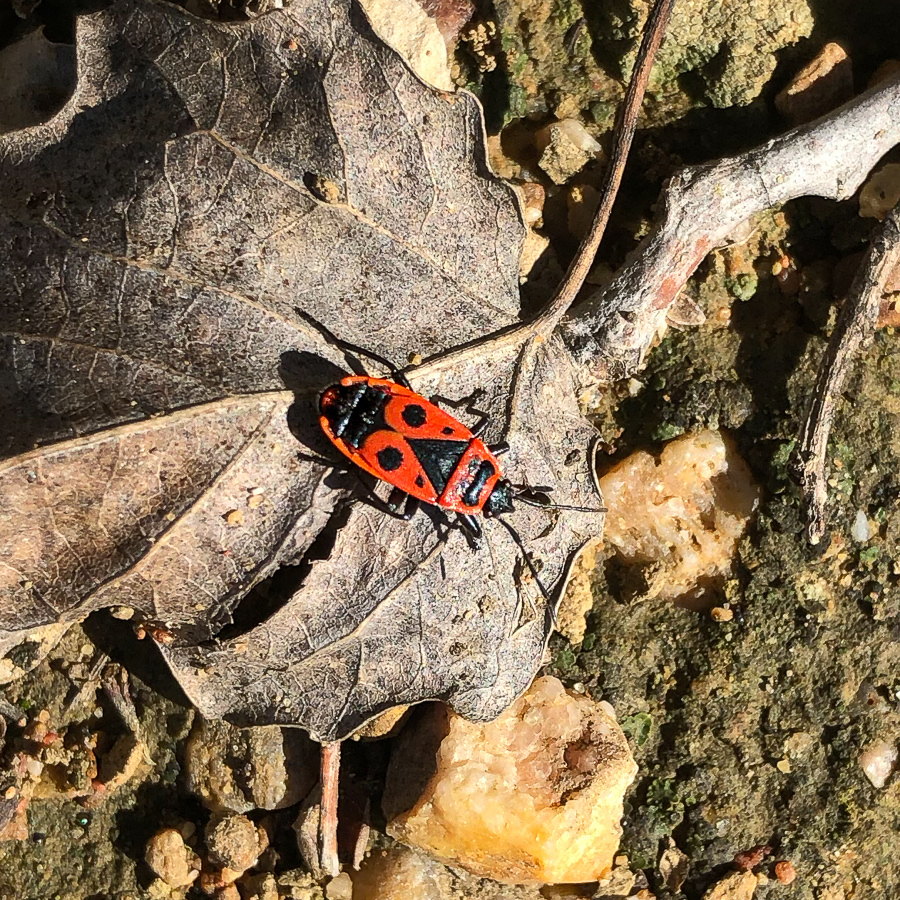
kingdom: Animalia
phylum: Arthropoda
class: Insecta
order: Hemiptera
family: Pyrrhocoridae
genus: Pyrrhocoris
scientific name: Pyrrhocoris apterus
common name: Firebug
